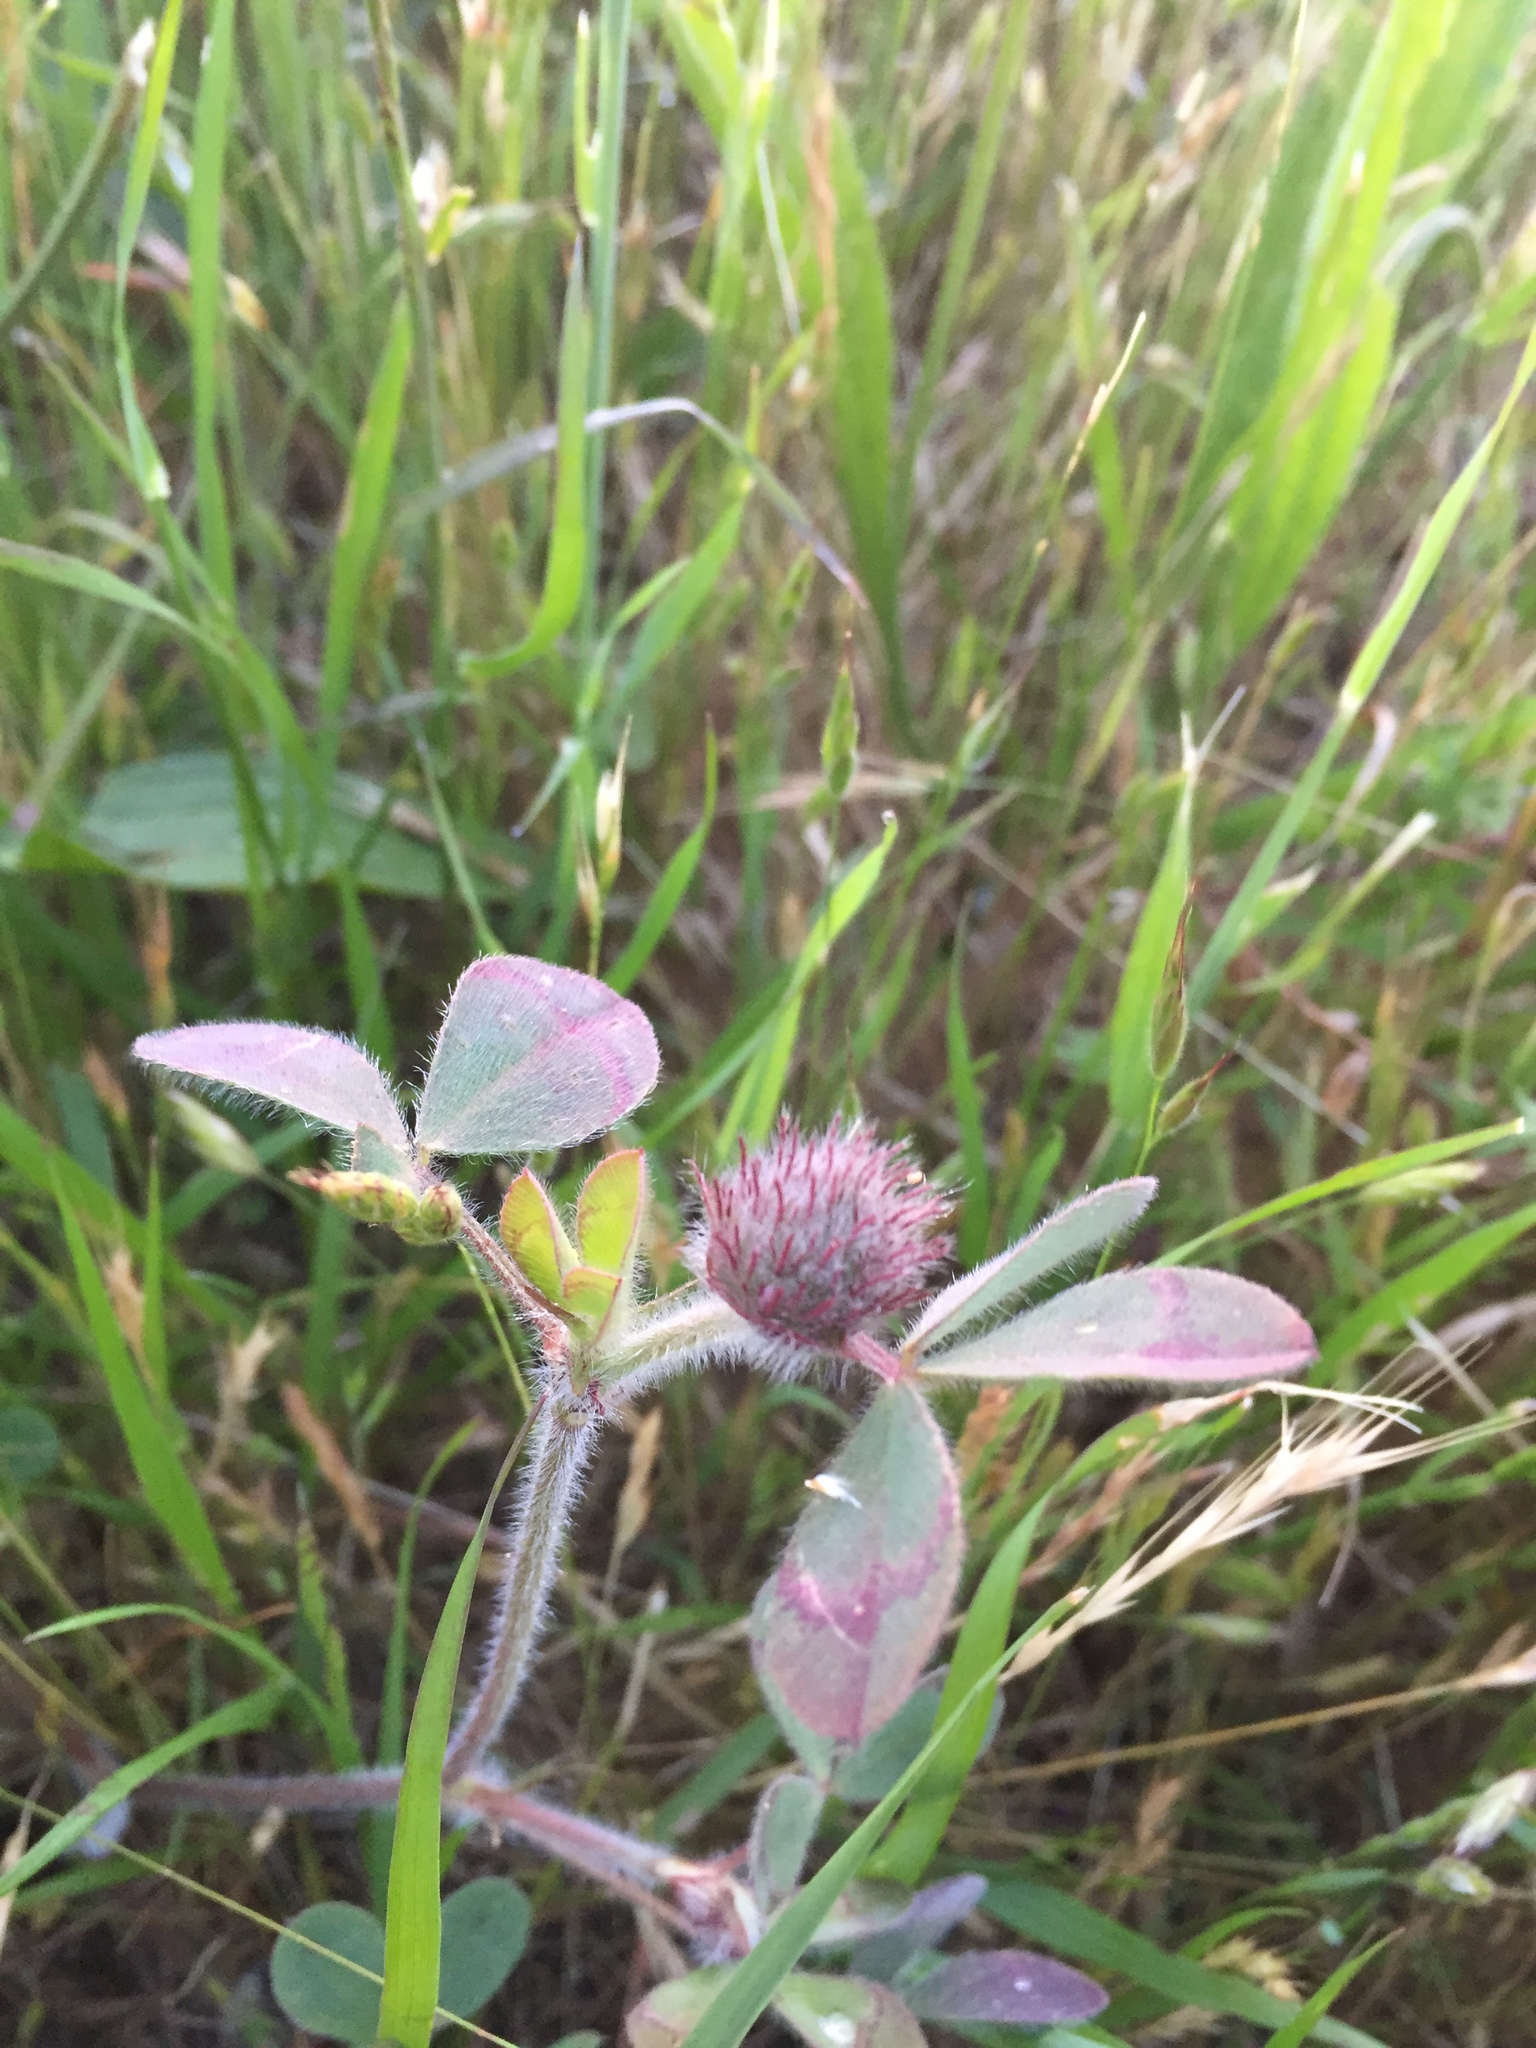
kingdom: Plantae
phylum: Tracheophyta
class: Magnoliopsida
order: Fabales
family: Fabaceae
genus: Trifolium
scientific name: Trifolium hirtum
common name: Rose clover
